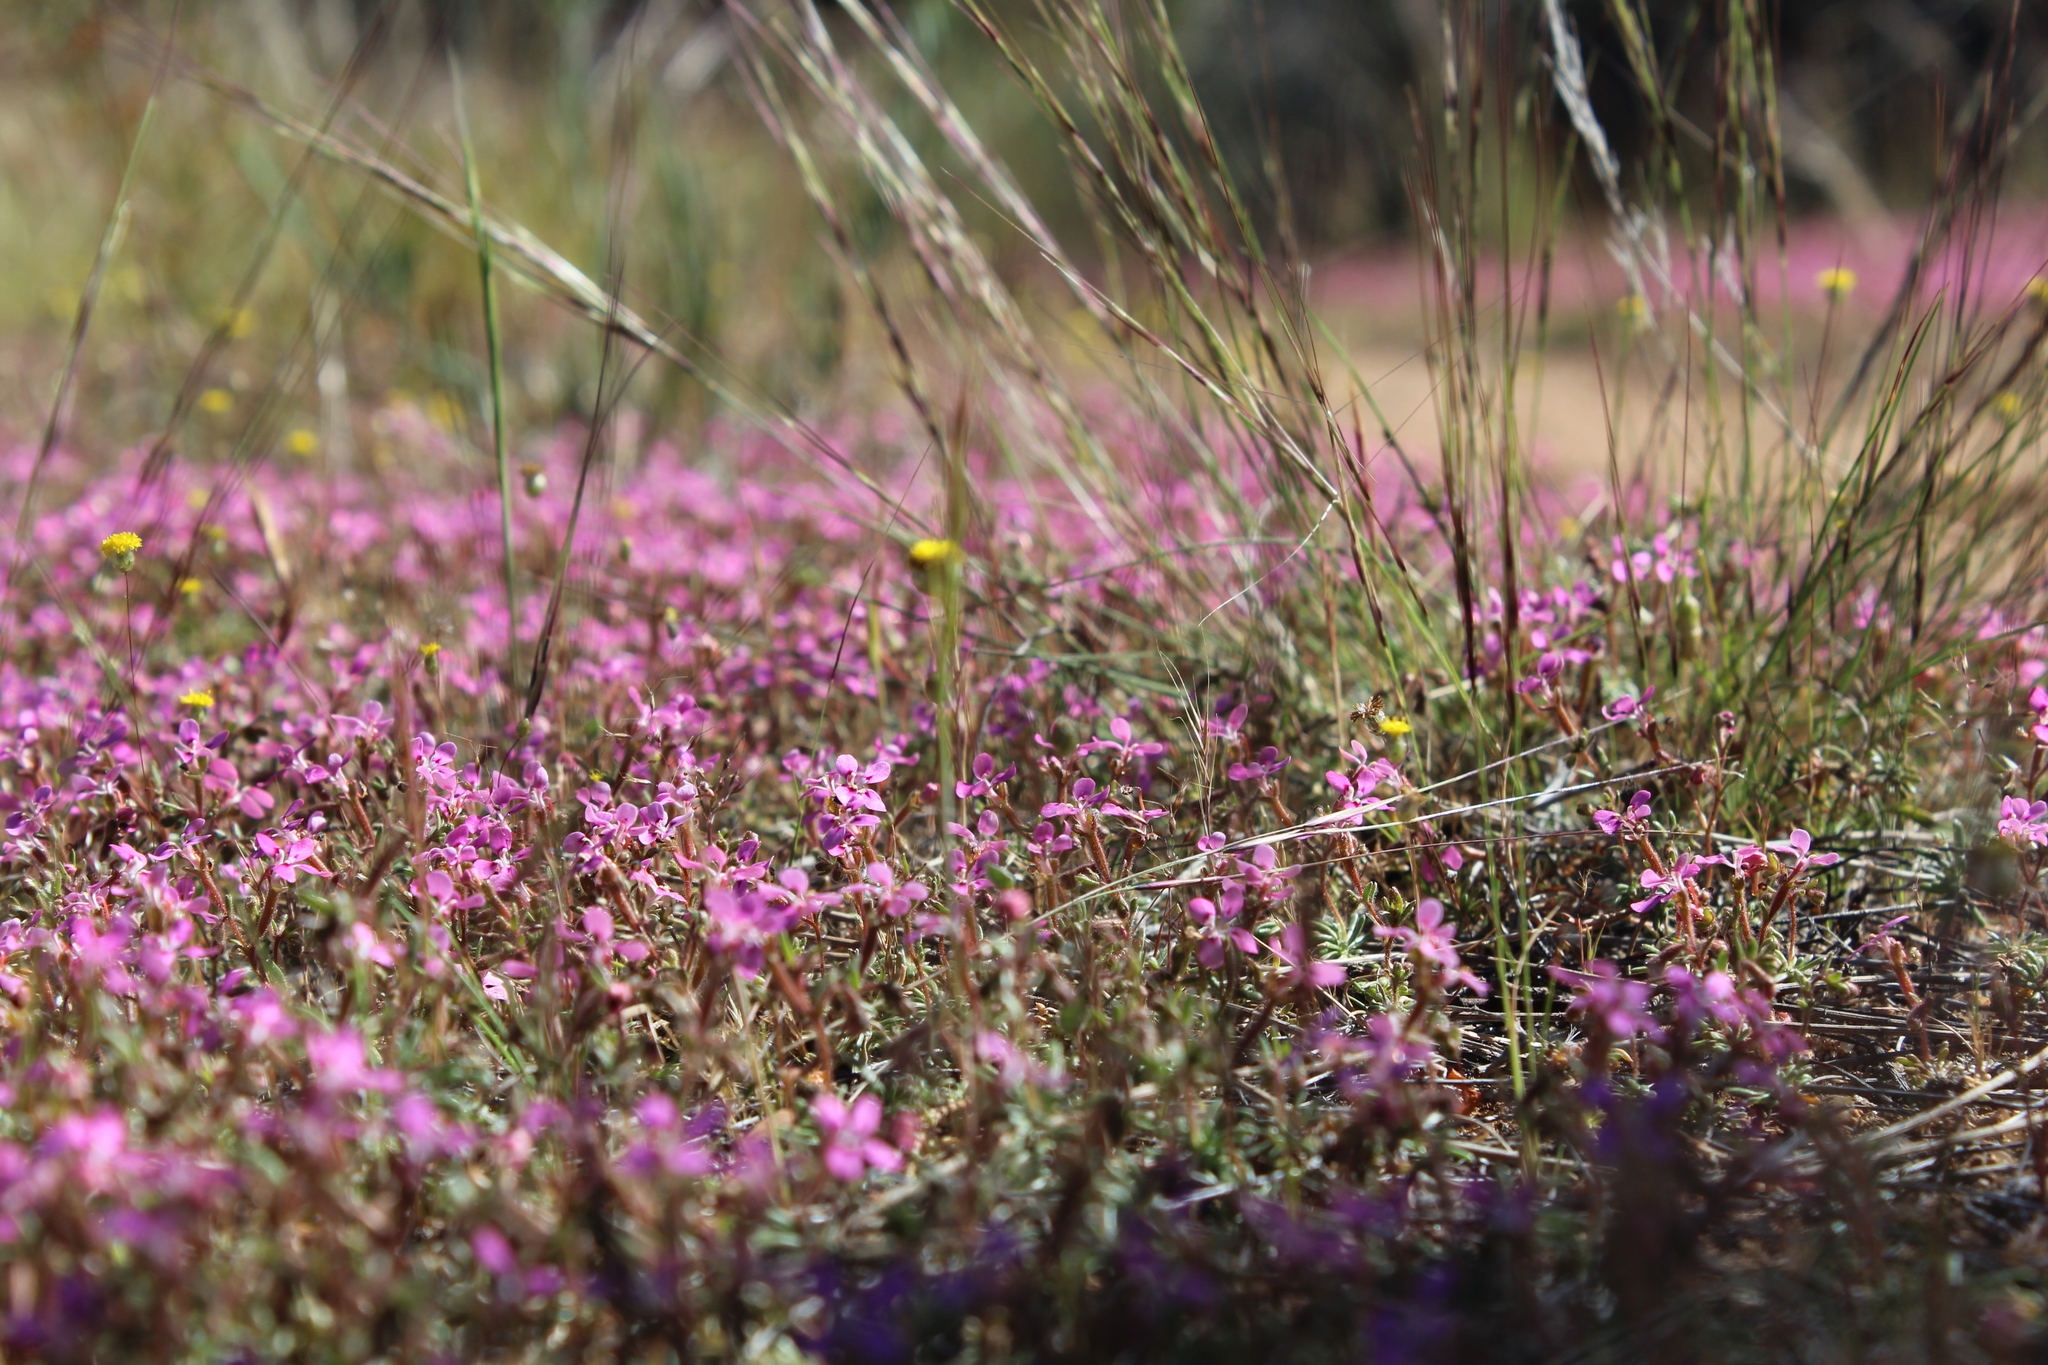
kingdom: Plantae
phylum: Tracheophyta
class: Magnoliopsida
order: Asterales
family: Stylidiaceae
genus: Stylidium
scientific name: Stylidium dielsianum
